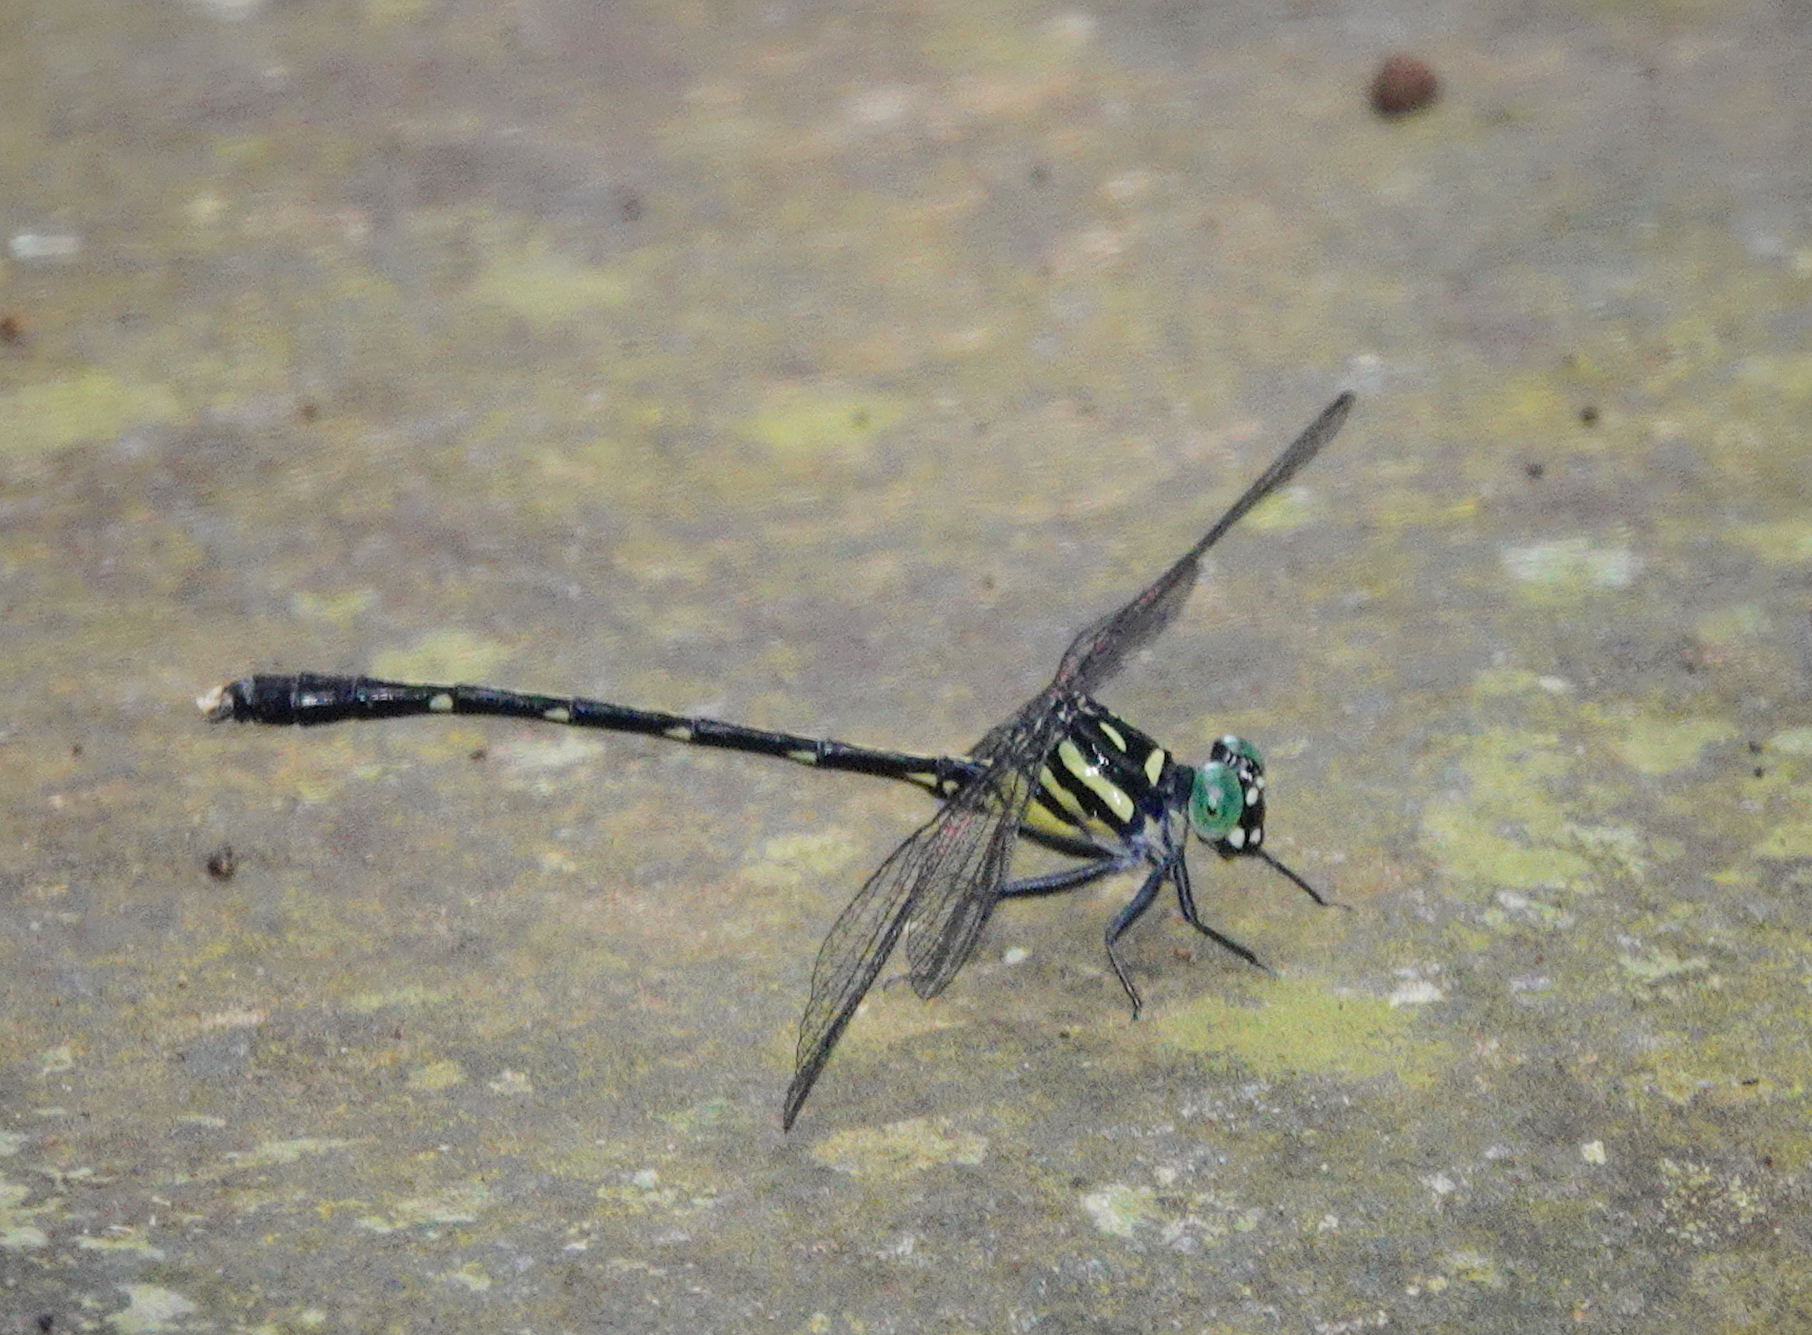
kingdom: Animalia
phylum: Arthropoda
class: Insecta
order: Odonata
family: Gomphidae
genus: Heliogomphus
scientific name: Heliogomphus walli
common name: Wall's grappletail
